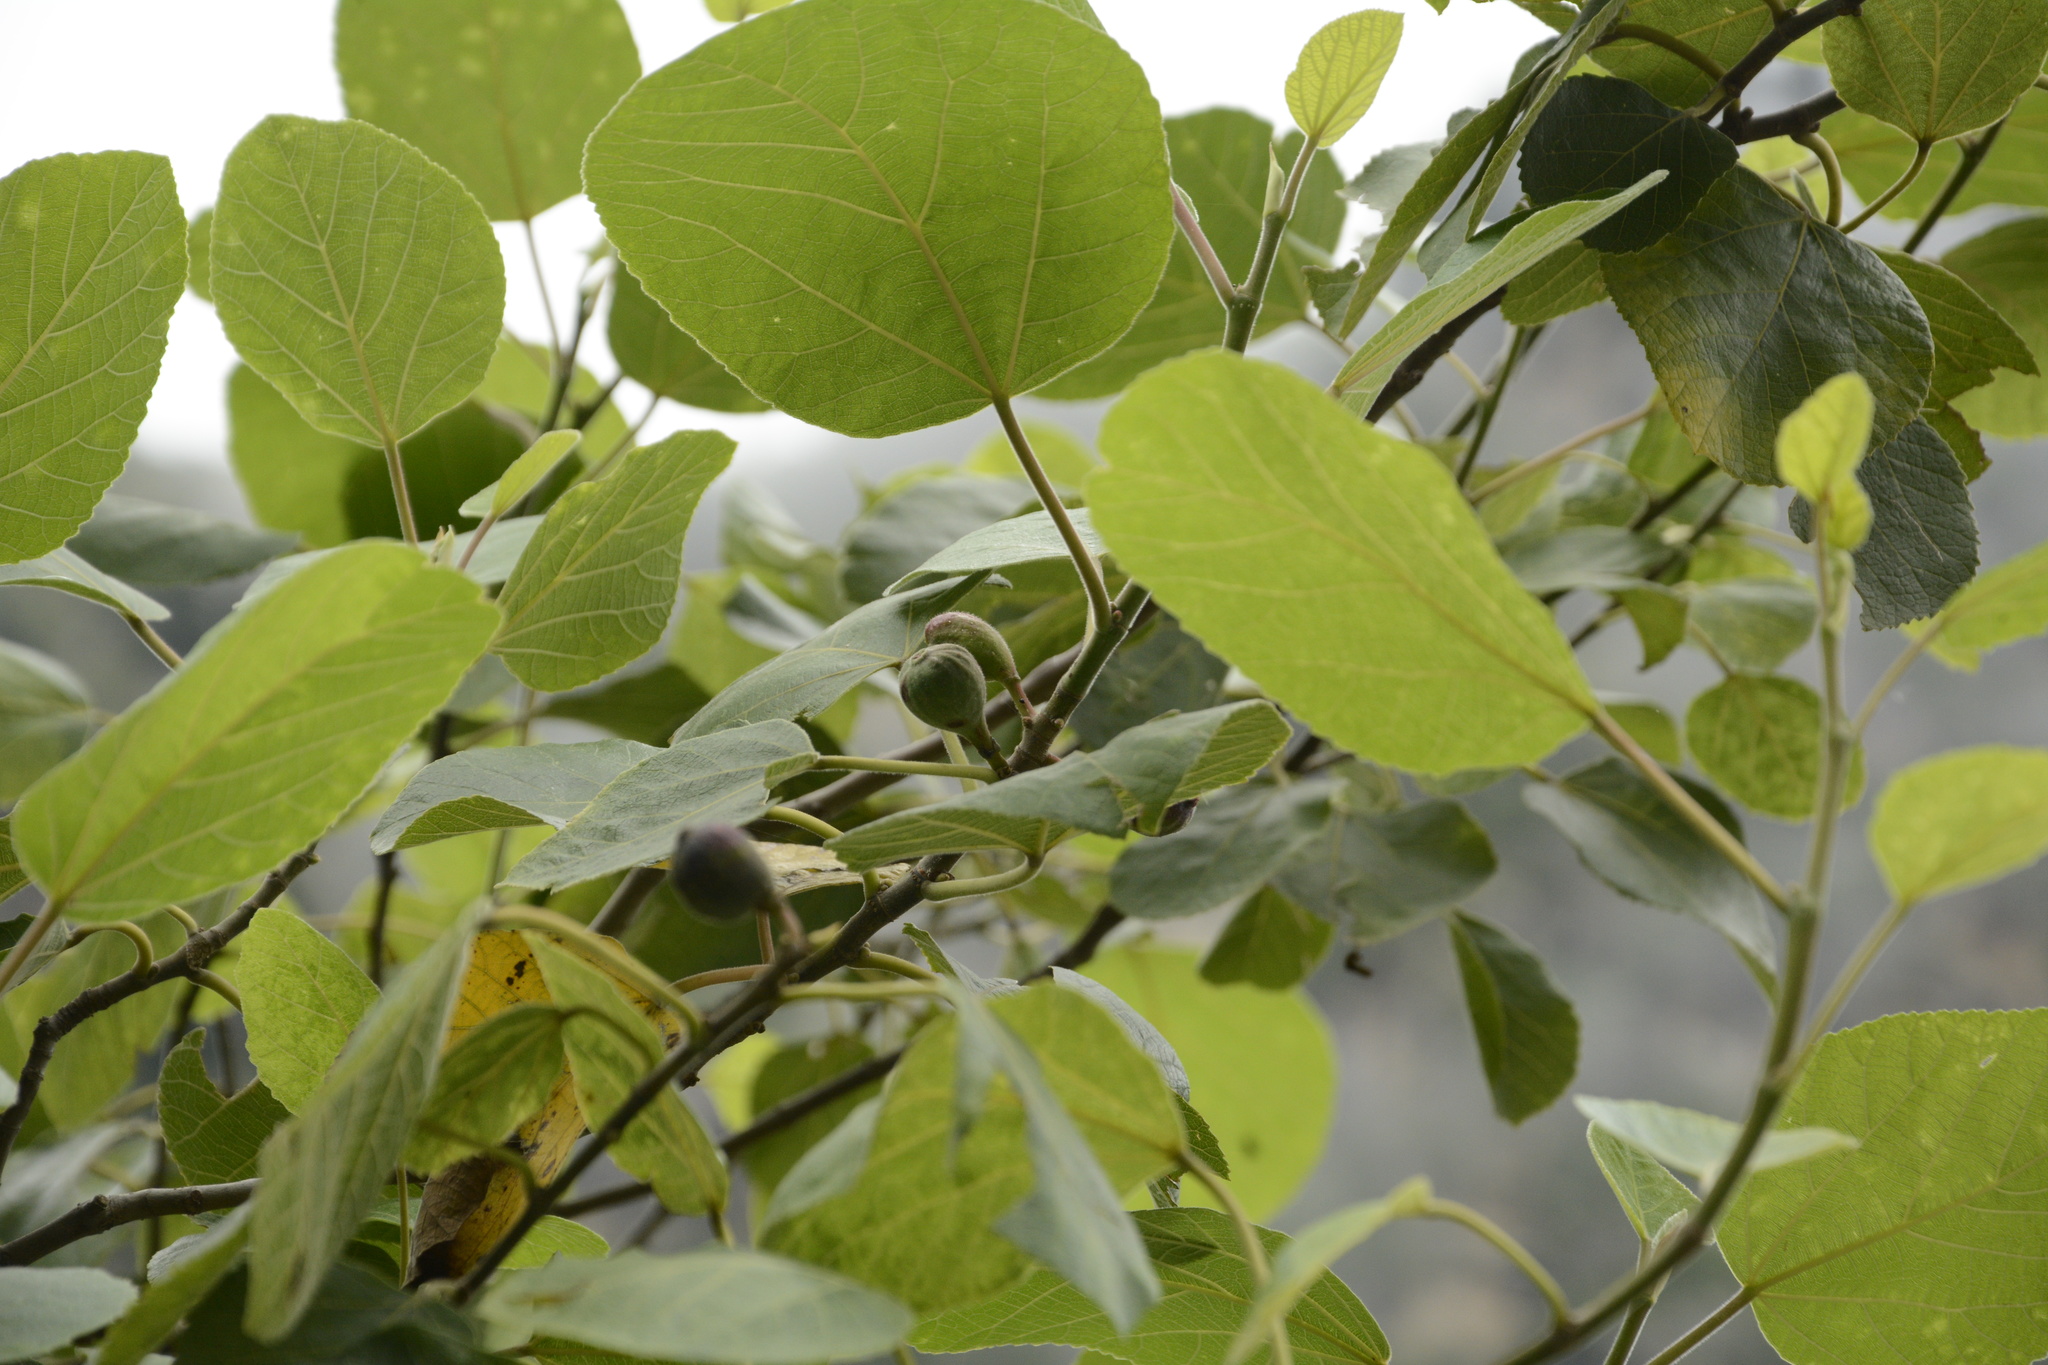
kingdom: Plantae
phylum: Tracheophyta
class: Magnoliopsida
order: Rosales
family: Moraceae
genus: Ficus
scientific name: Ficus palmata
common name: Punjab fig
